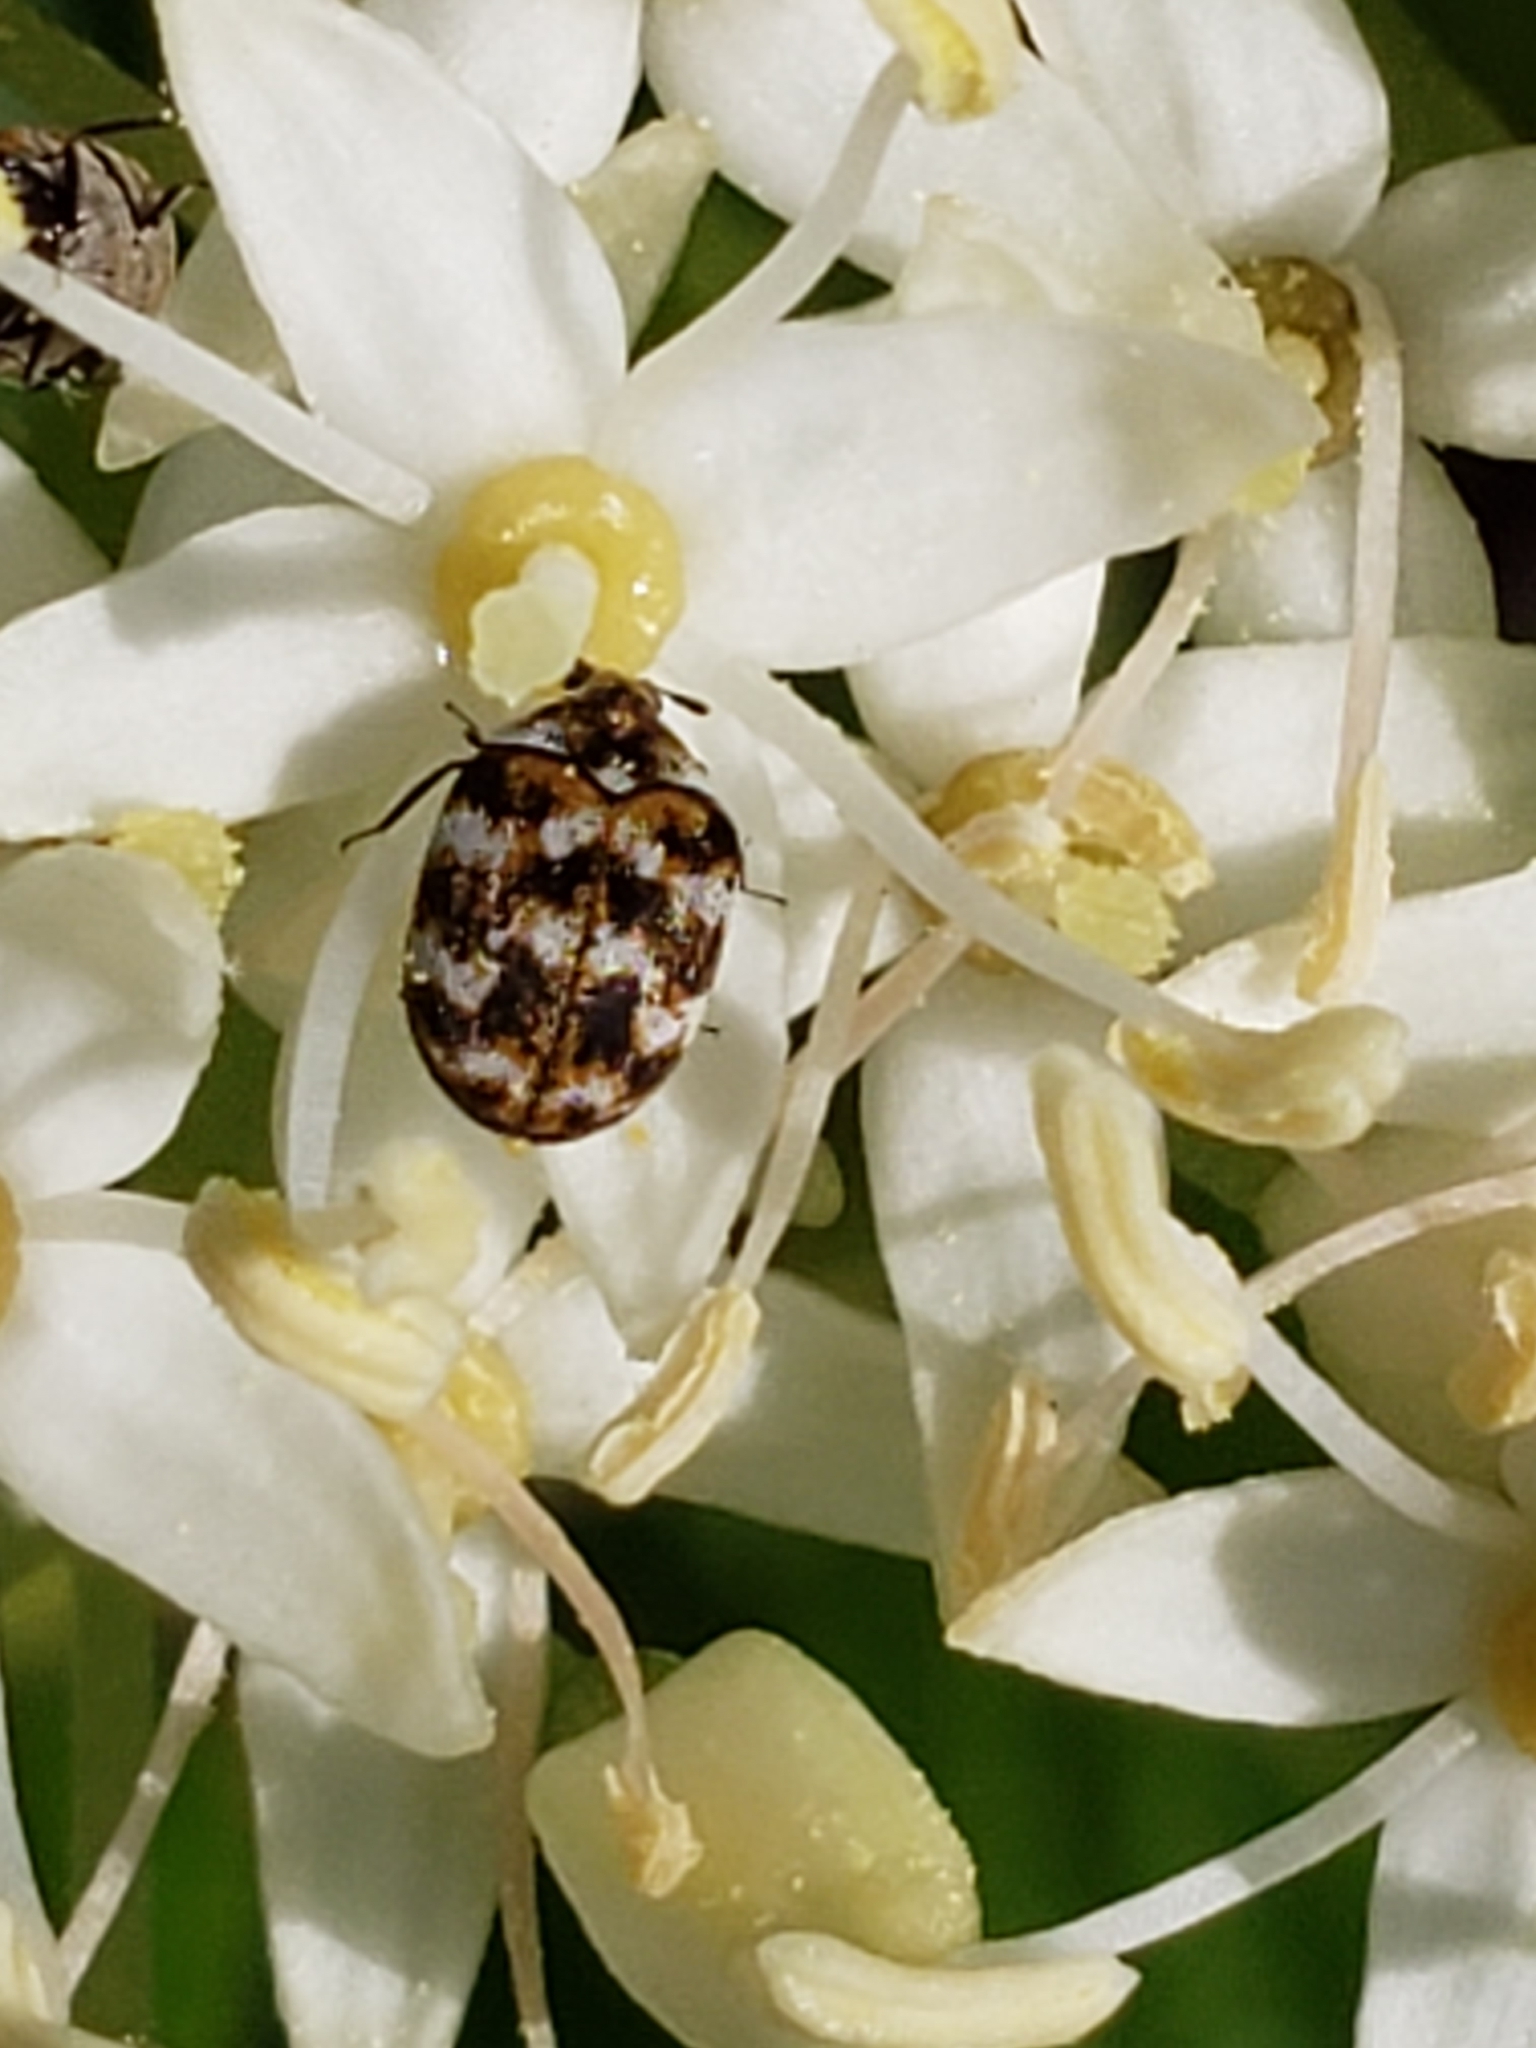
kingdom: Animalia
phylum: Arthropoda
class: Insecta
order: Coleoptera
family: Dermestidae
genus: Anthrenus
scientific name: Anthrenus verbasci
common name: Varied carpet beetle
